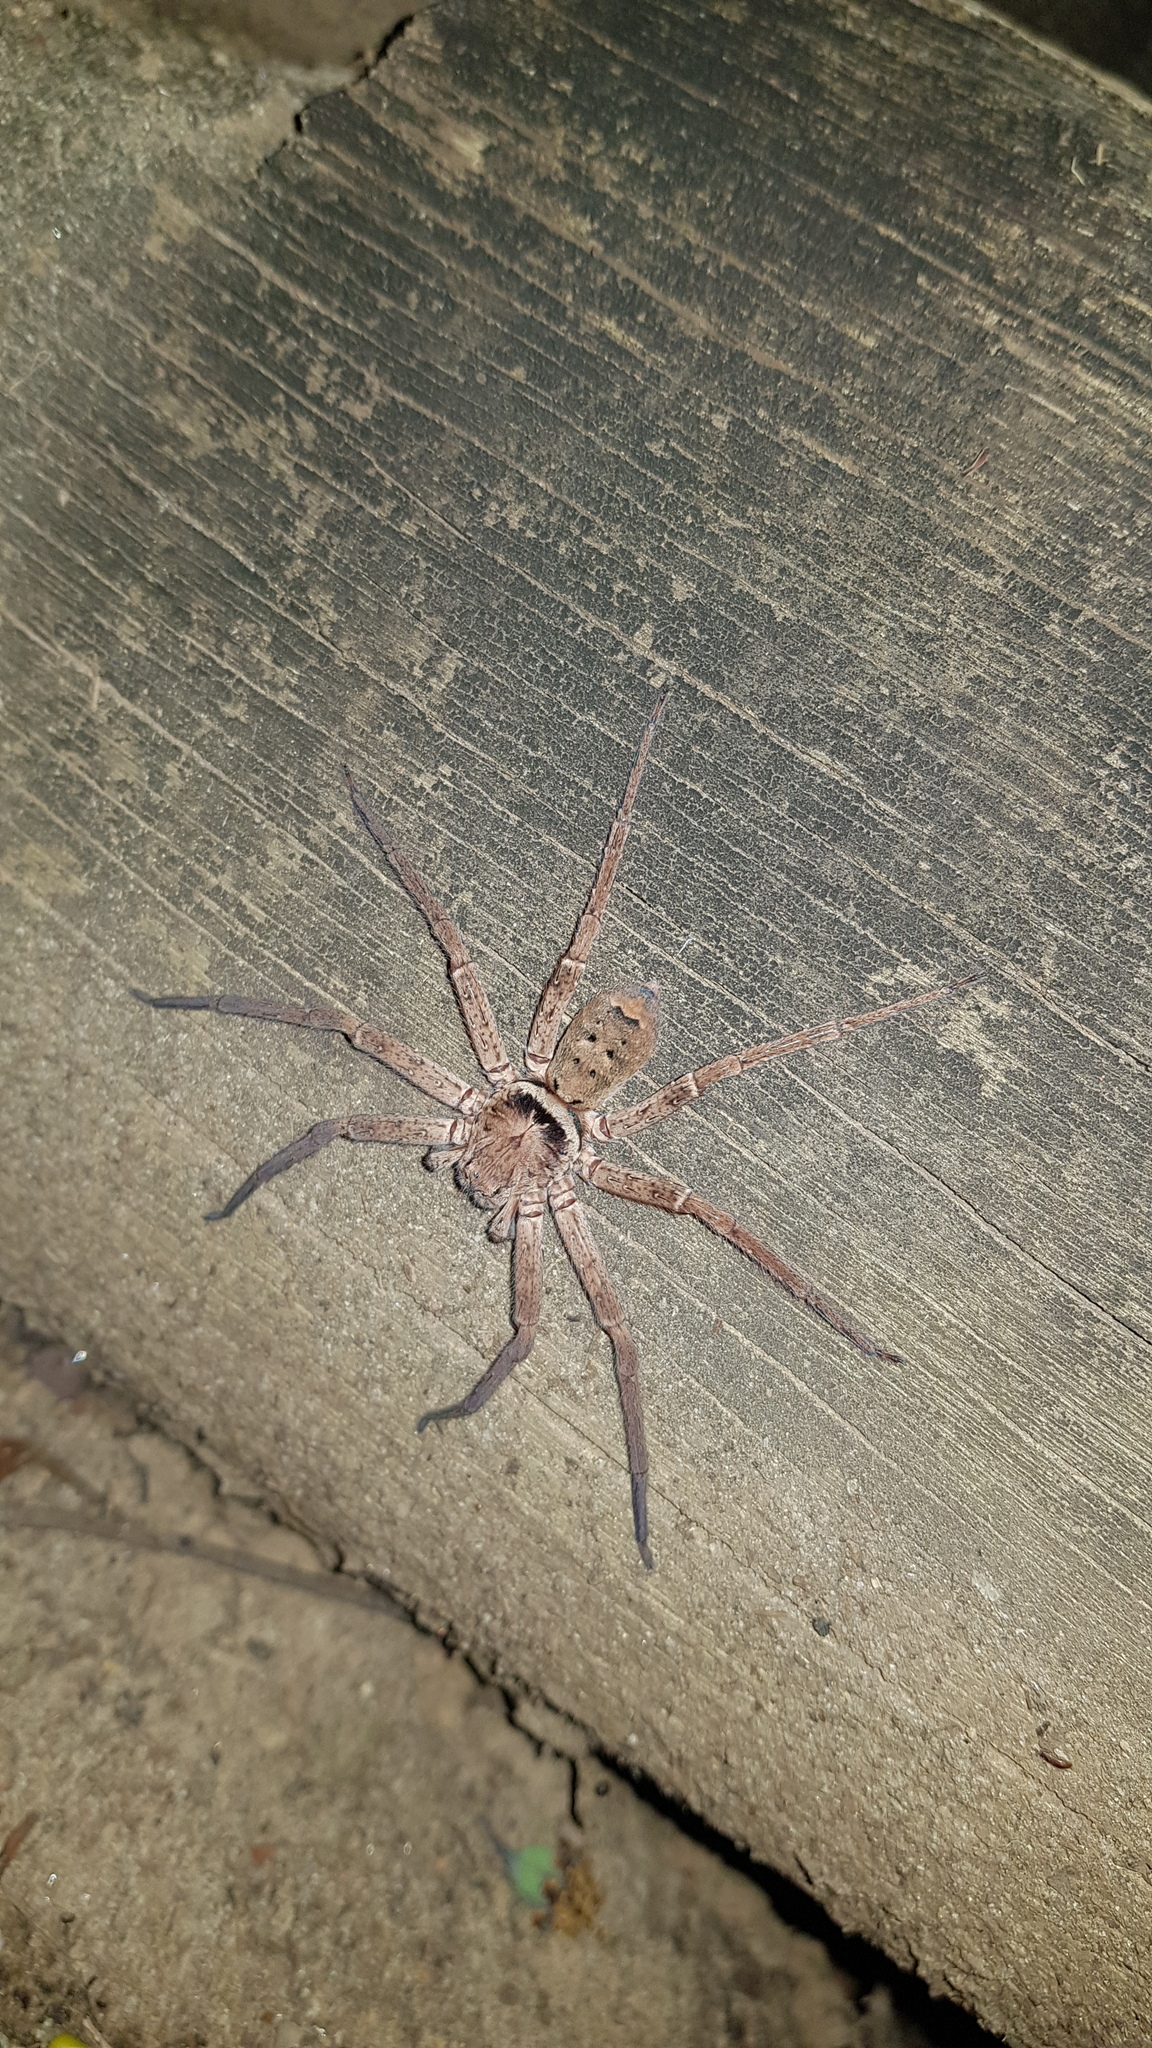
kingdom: Animalia
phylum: Arthropoda
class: Arachnida
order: Araneae
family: Sparassidae
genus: Heteropoda
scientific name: Heteropoda jugulans
